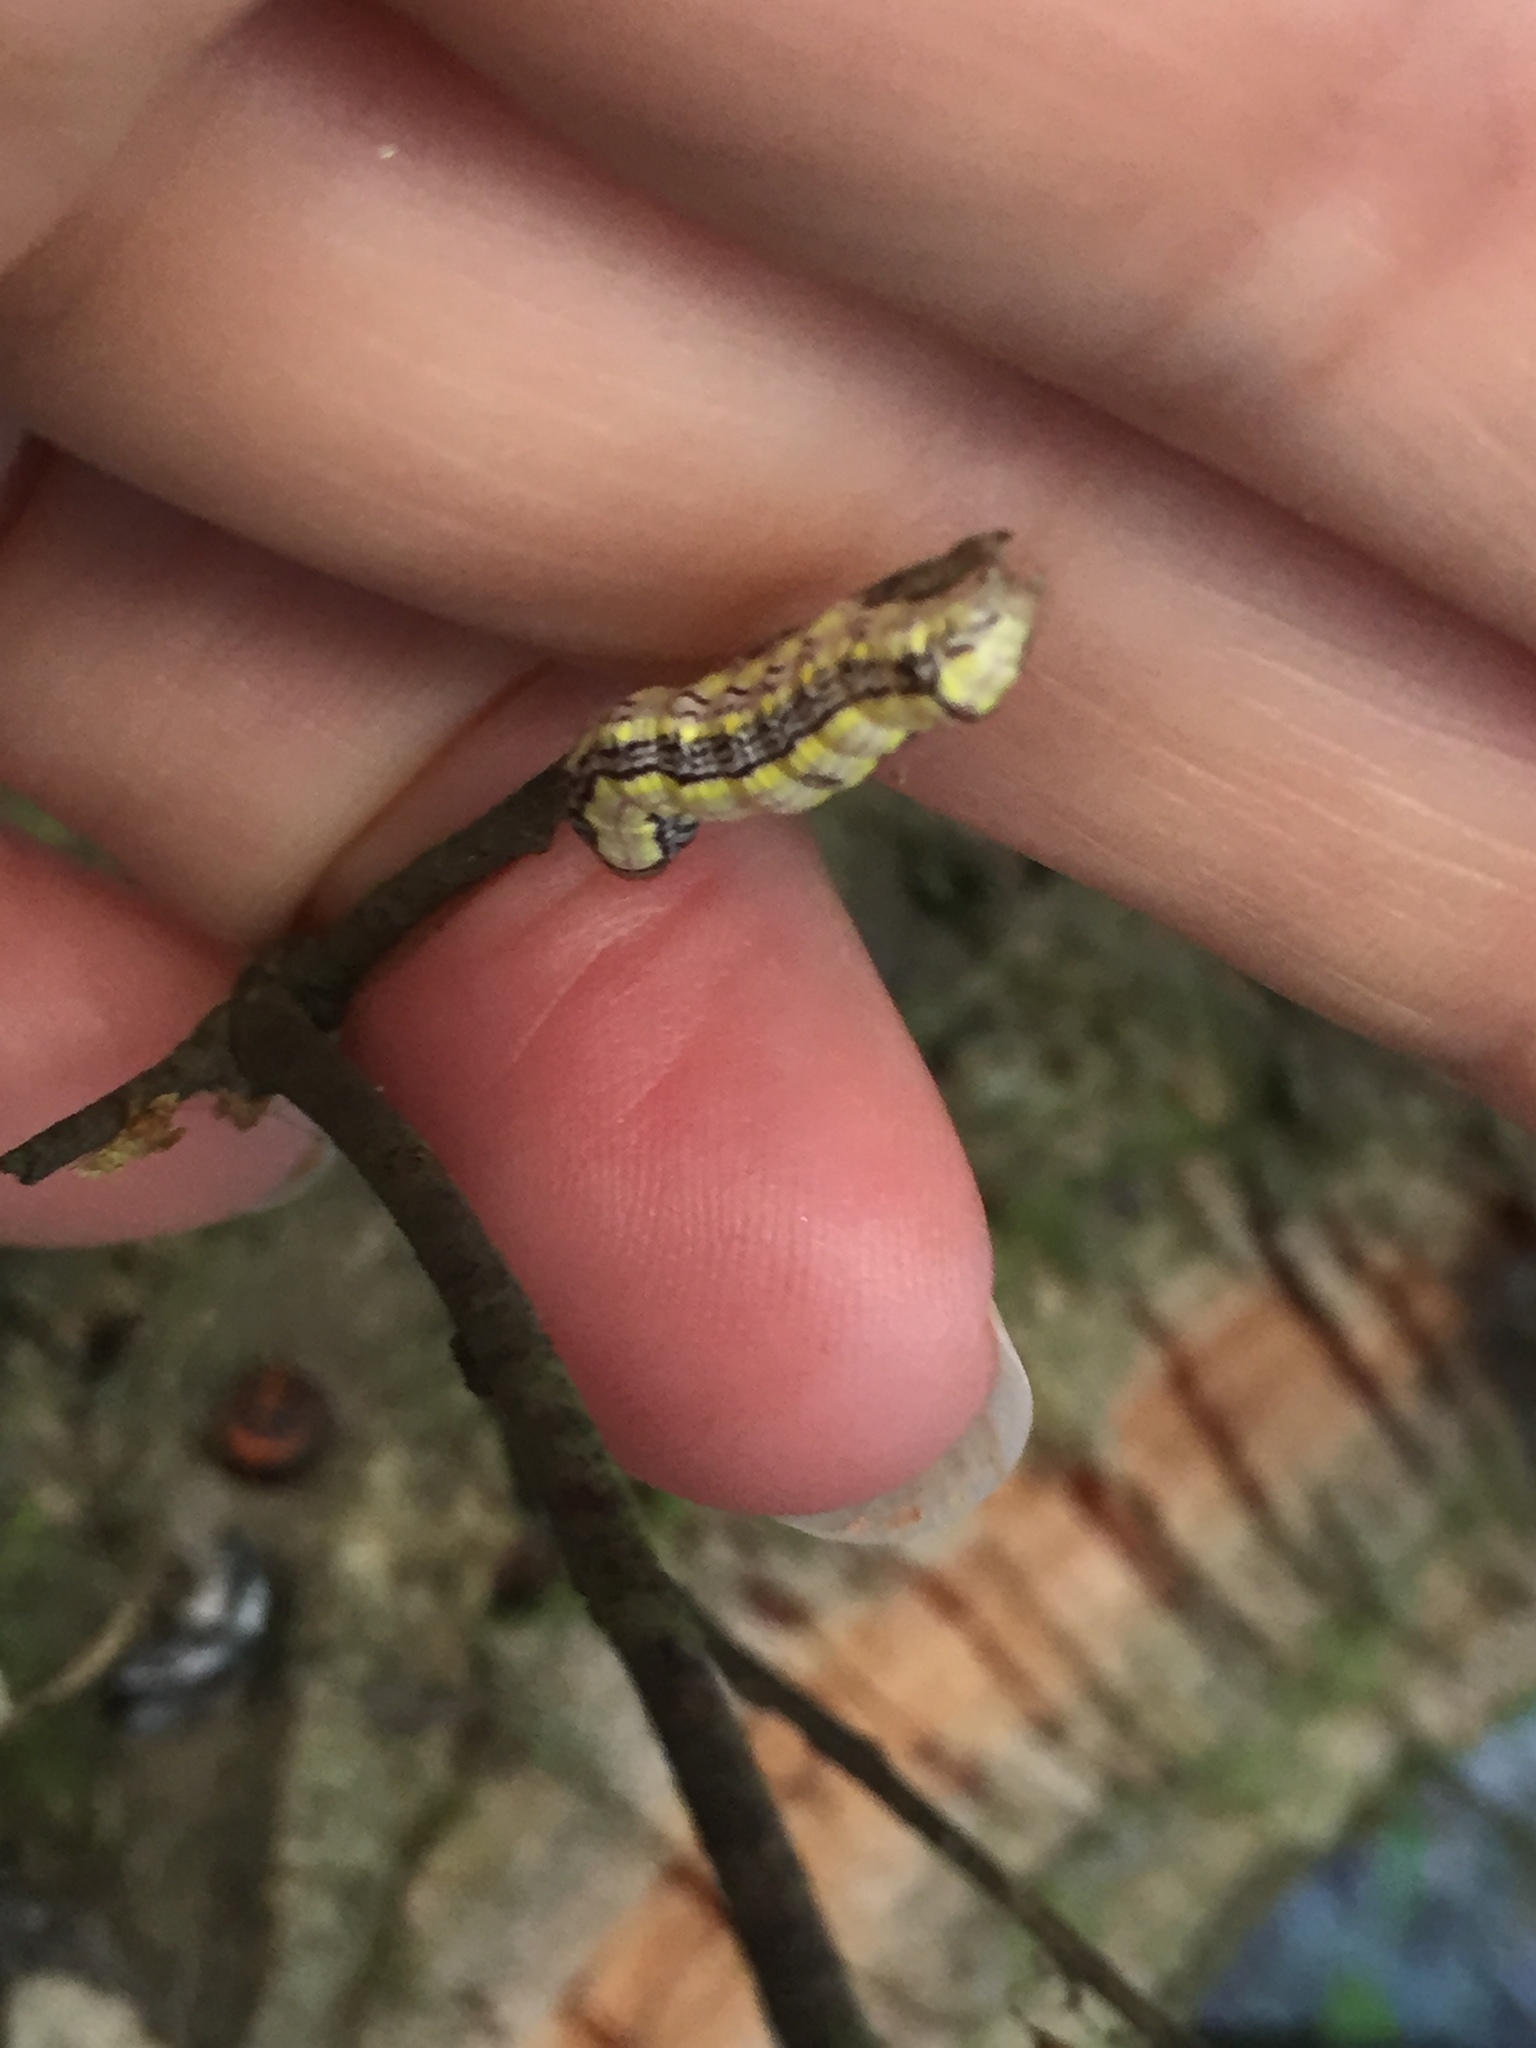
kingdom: Animalia
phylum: Arthropoda
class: Insecta
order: Lepidoptera
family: Notodontidae
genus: Phryganidia
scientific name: Phryganidia californica
